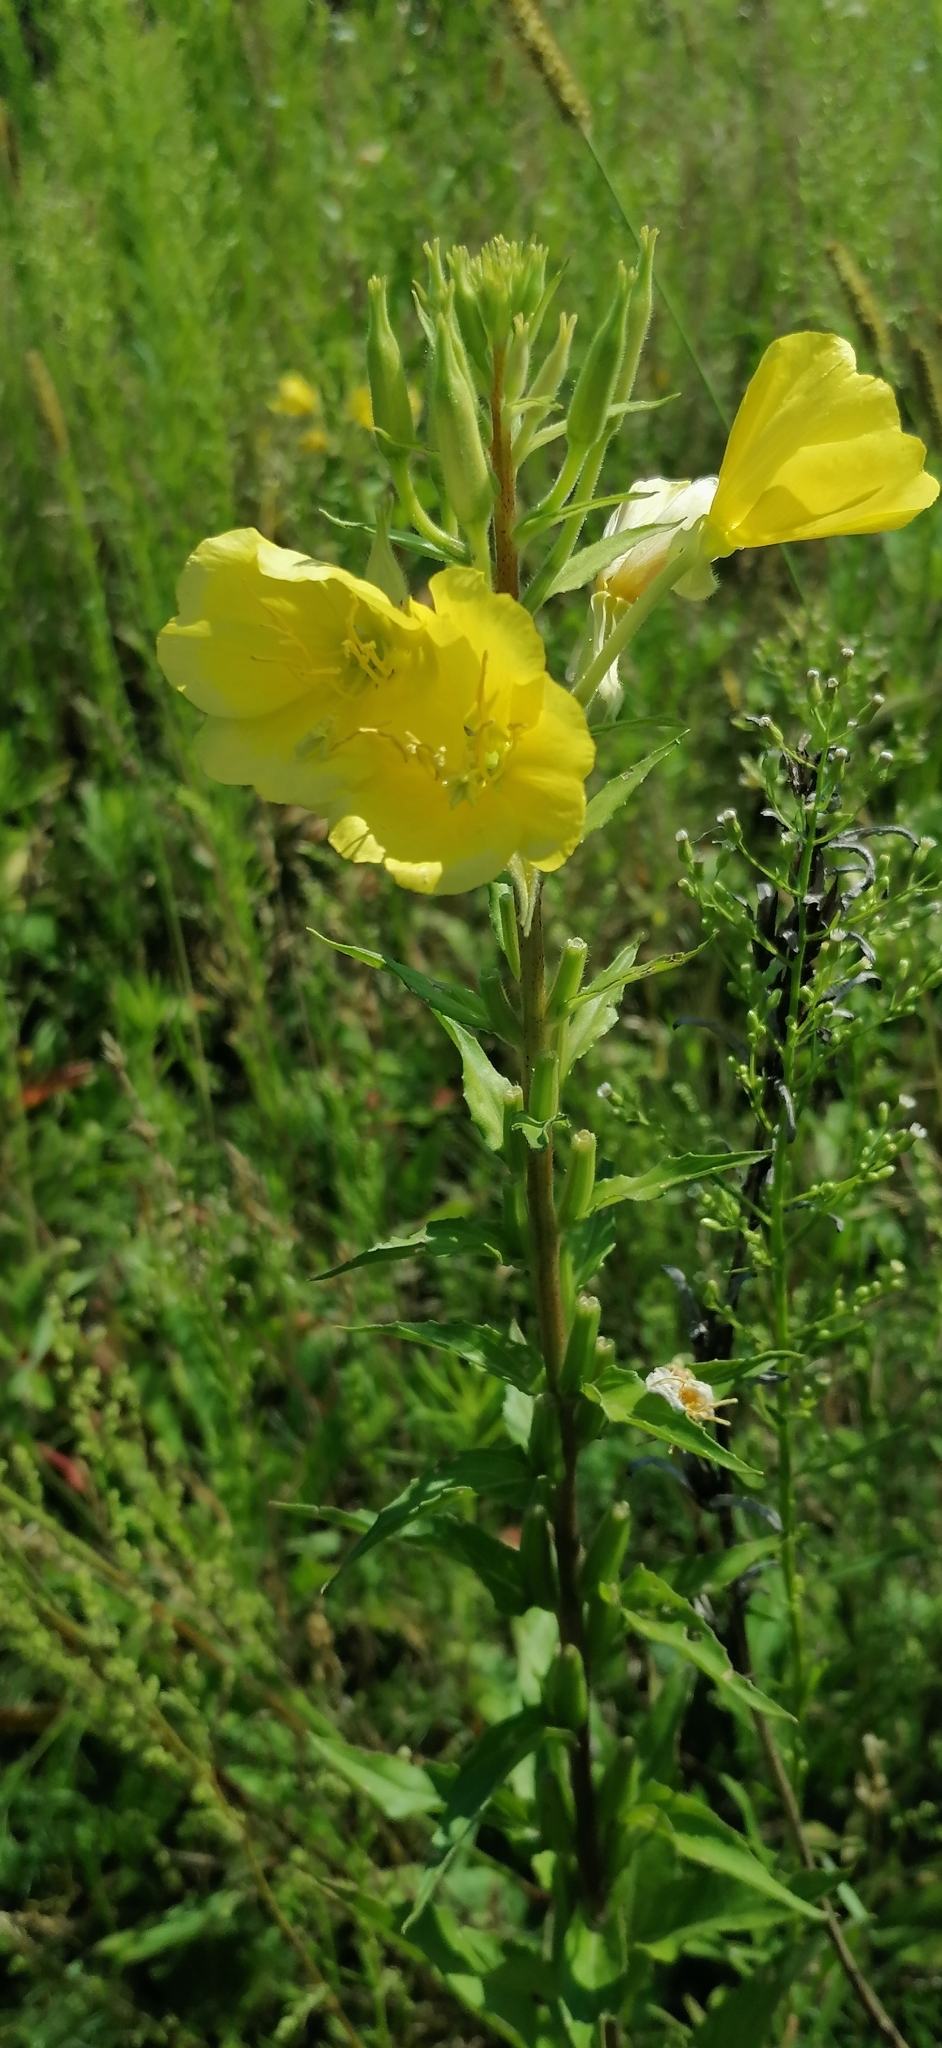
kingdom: Plantae
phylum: Tracheophyta
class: Magnoliopsida
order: Myrtales
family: Onagraceae
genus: Oenothera
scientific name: Oenothera rubricaulis
